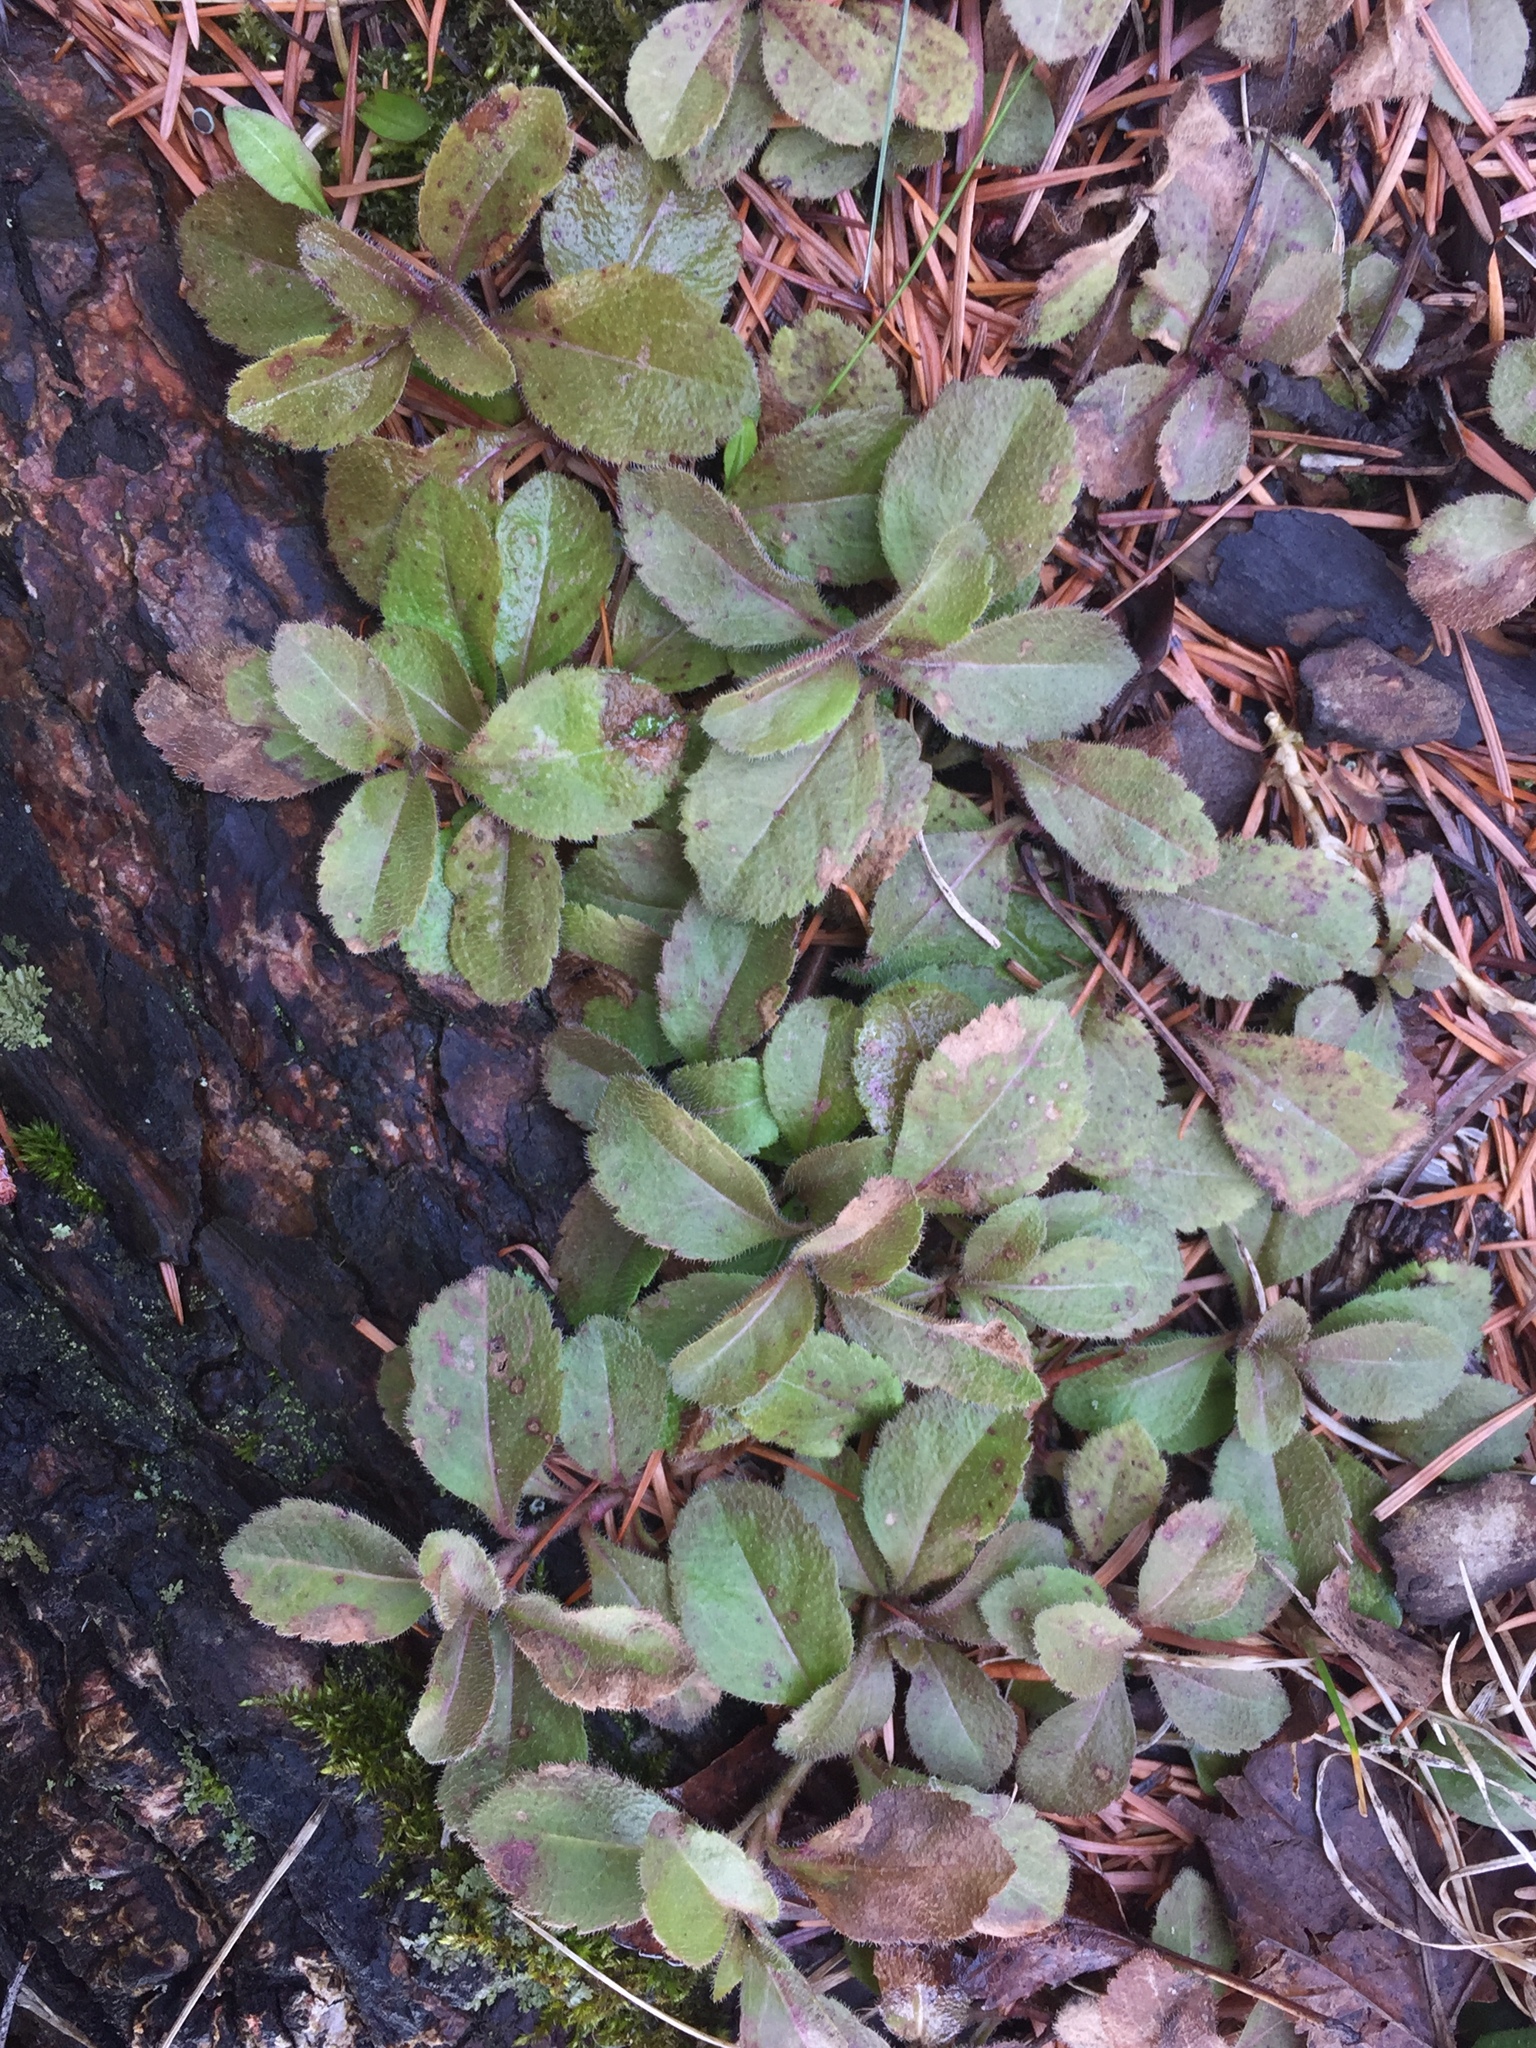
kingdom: Plantae
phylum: Tracheophyta
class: Magnoliopsida
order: Lamiales
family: Plantaginaceae
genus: Veronica
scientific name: Veronica officinalis
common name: Common speedwell
